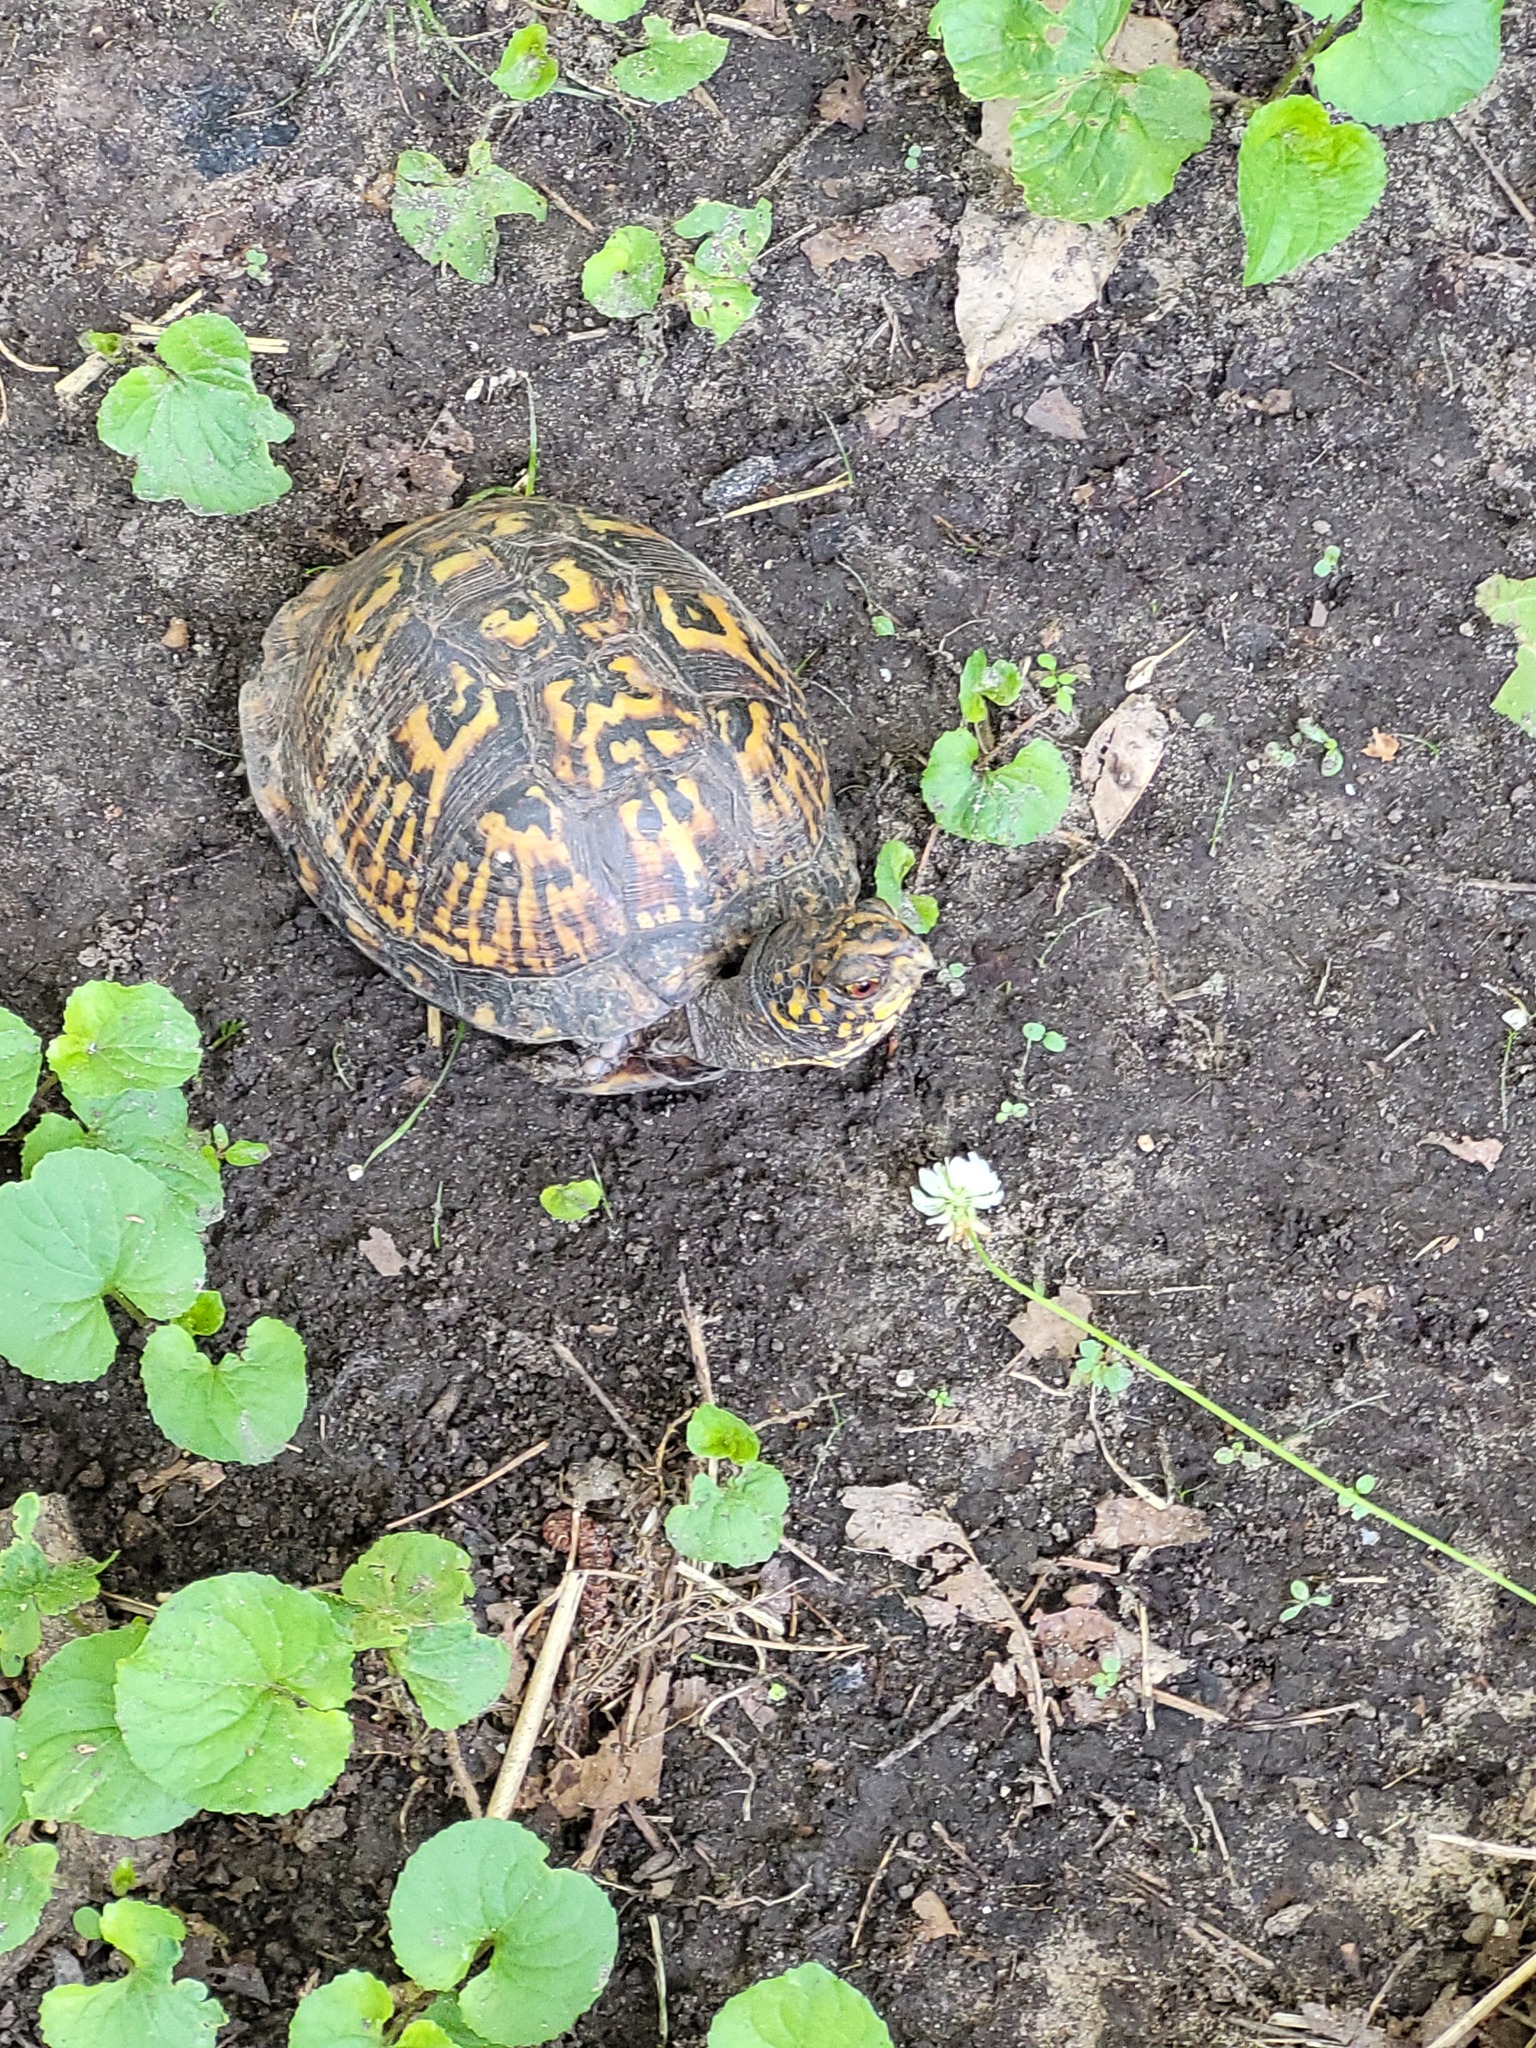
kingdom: Animalia
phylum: Chordata
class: Testudines
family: Emydidae
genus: Terrapene
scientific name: Terrapene carolina
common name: Common box turtle
